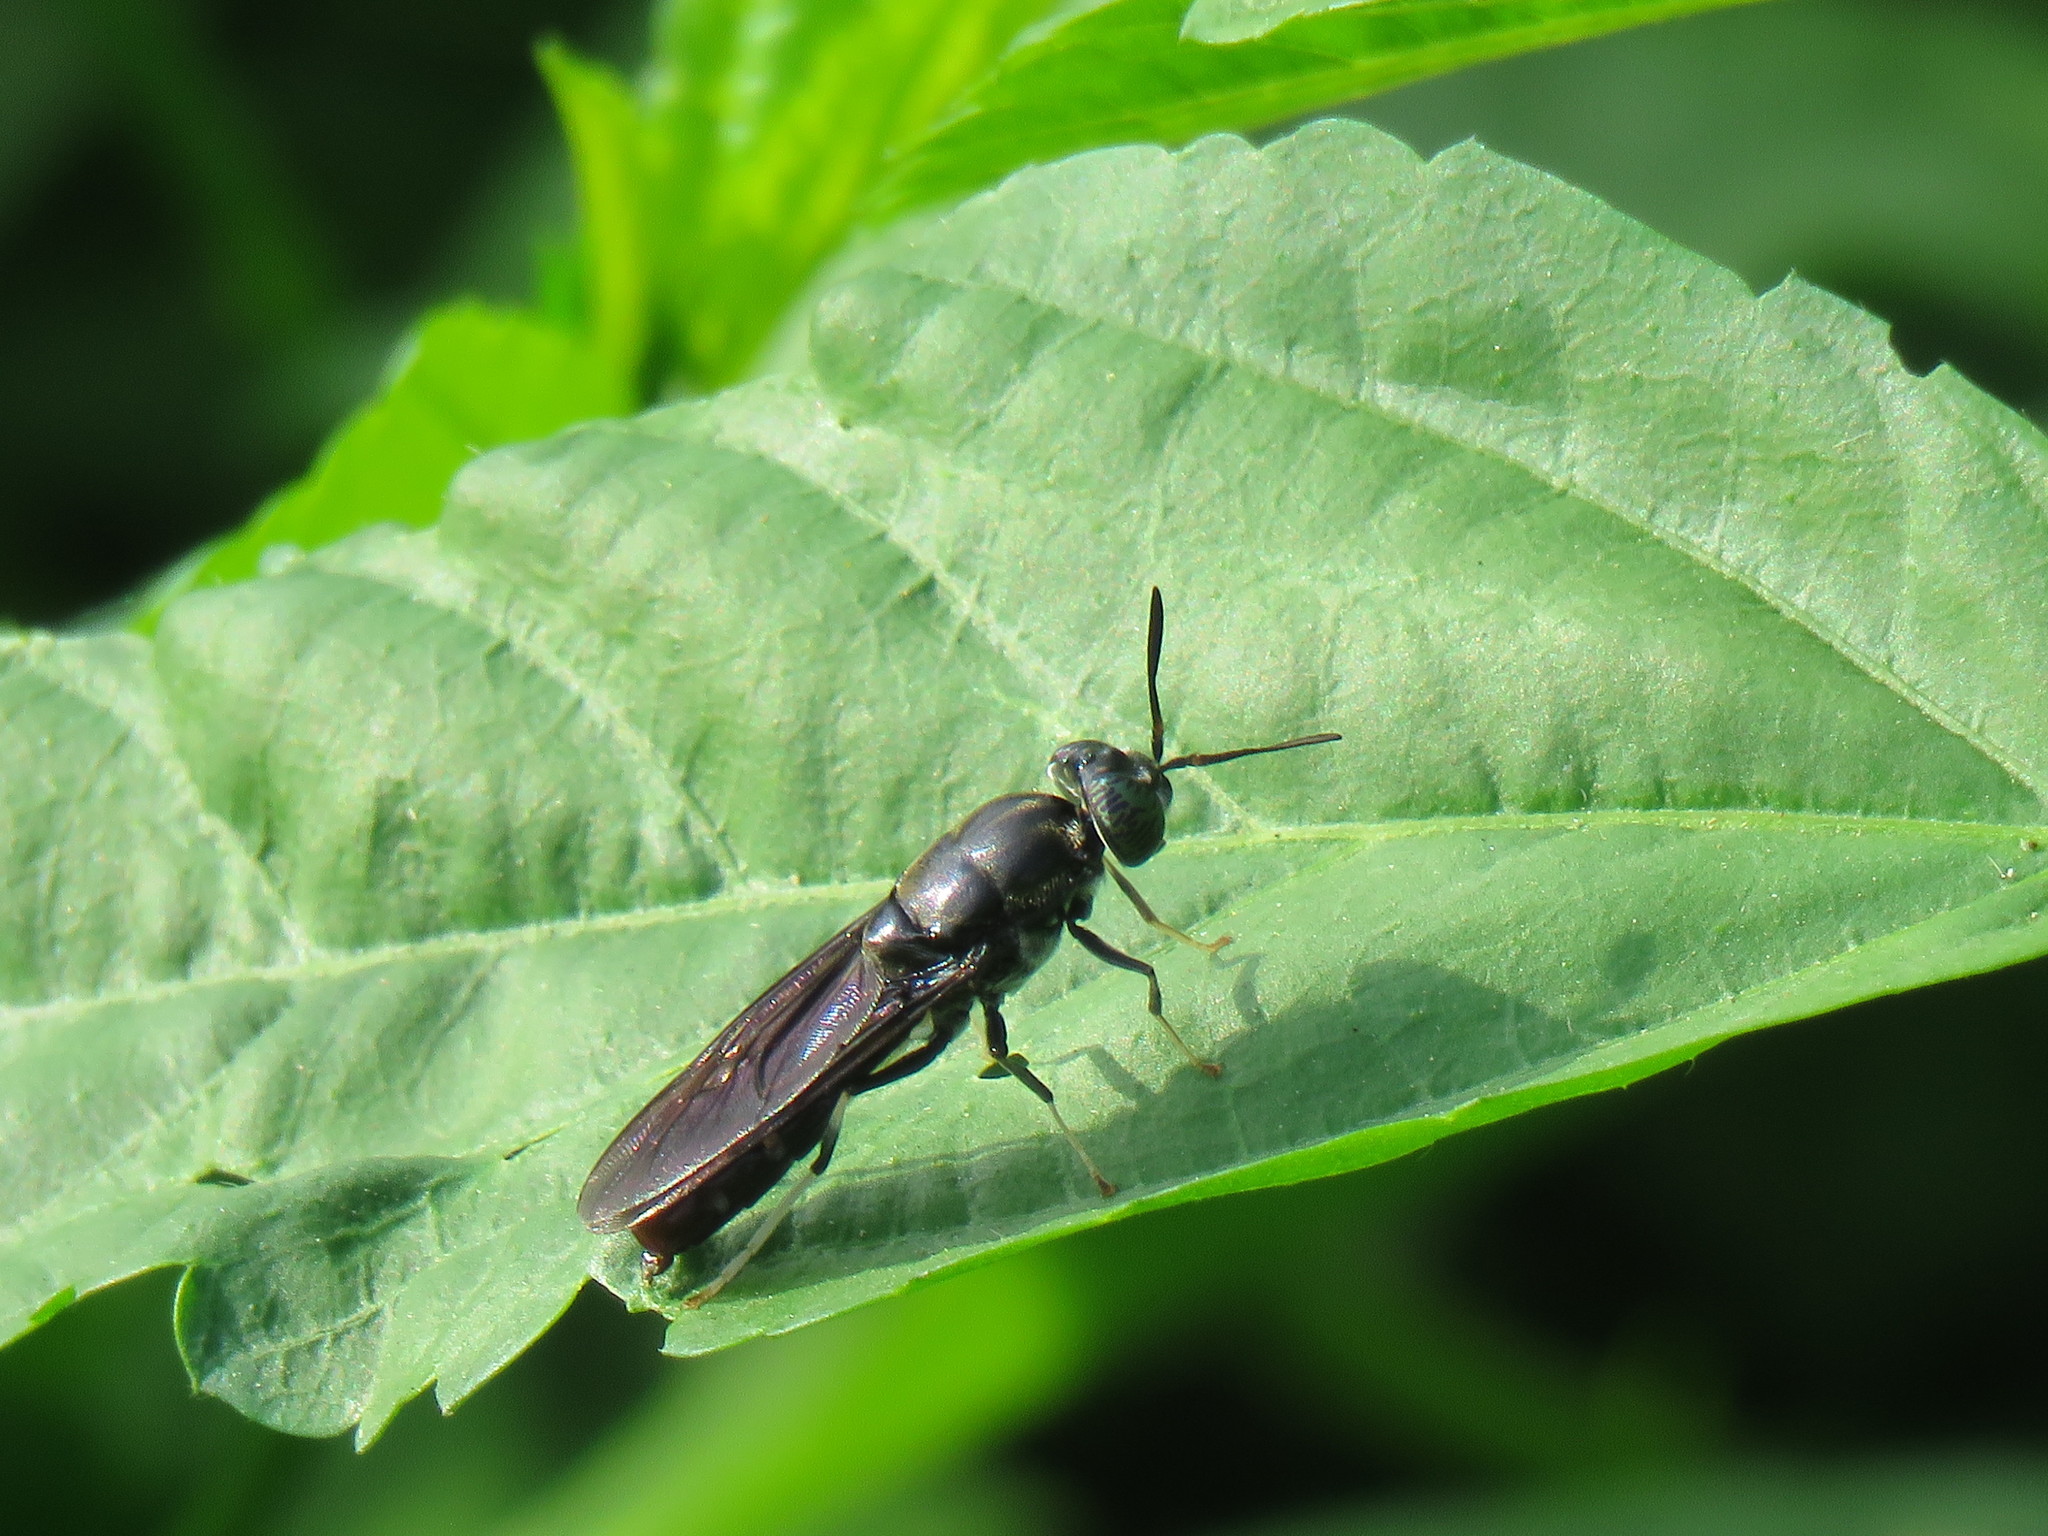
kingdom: Animalia
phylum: Arthropoda
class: Insecta
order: Diptera
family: Stratiomyidae
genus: Hermetia
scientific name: Hermetia illucens
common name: Black soldier fly
